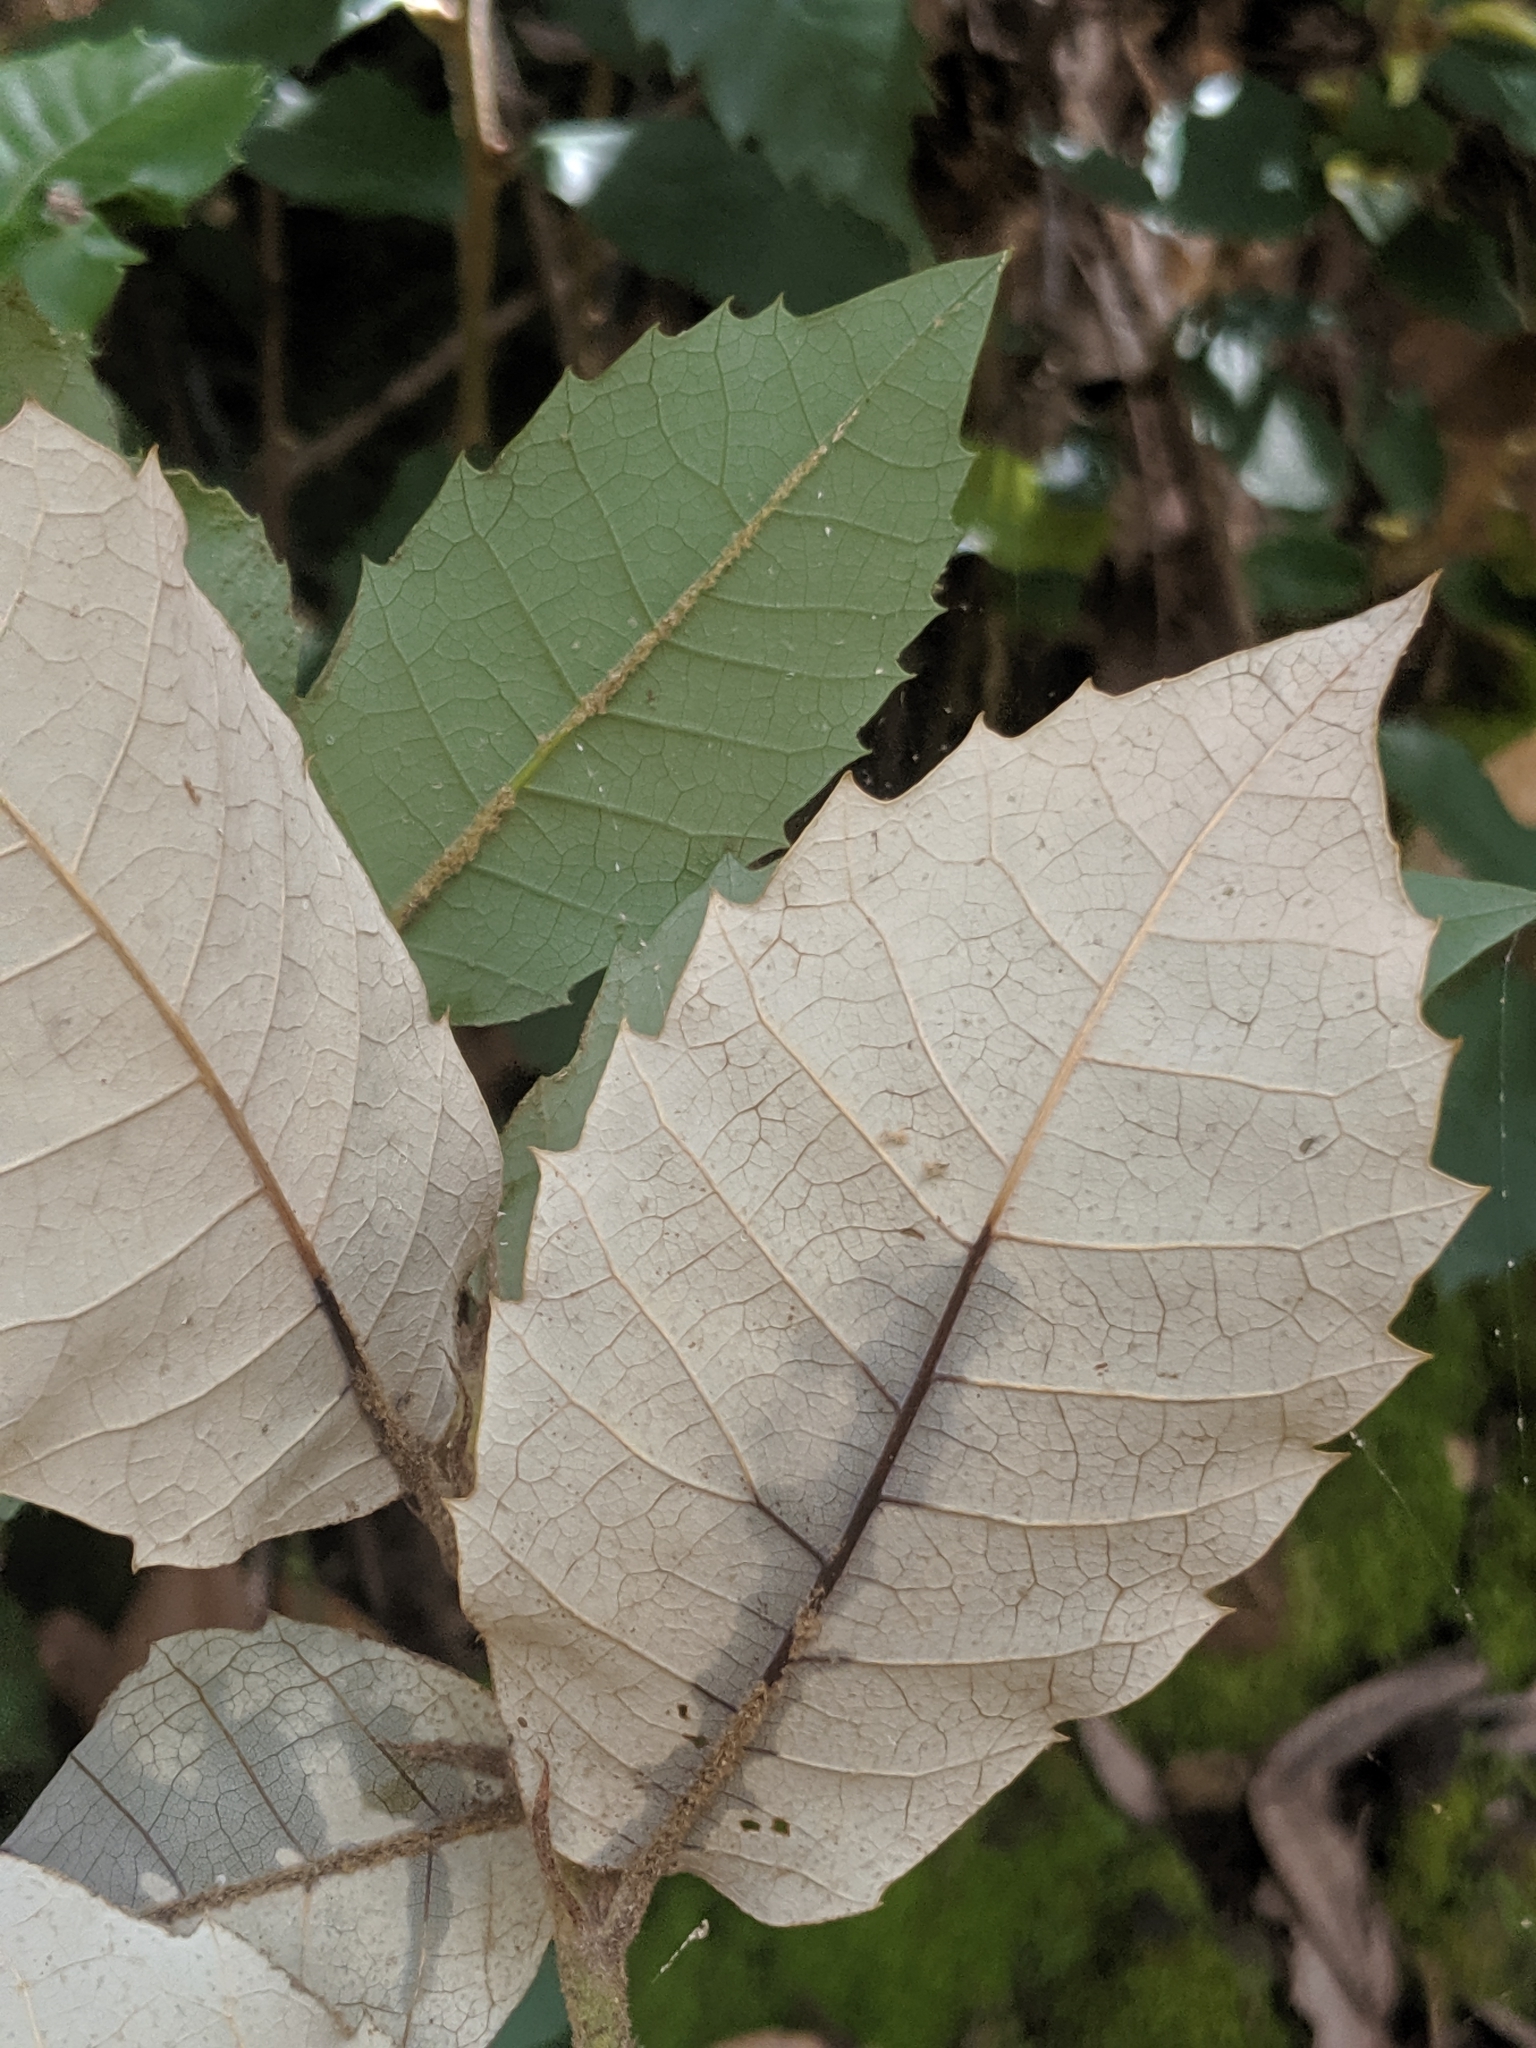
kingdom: Plantae
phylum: Tracheophyta
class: Magnoliopsida
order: Fagales
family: Fagaceae
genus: Notholithocarpus
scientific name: Notholithocarpus densiflorus
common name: Tan bark oak
